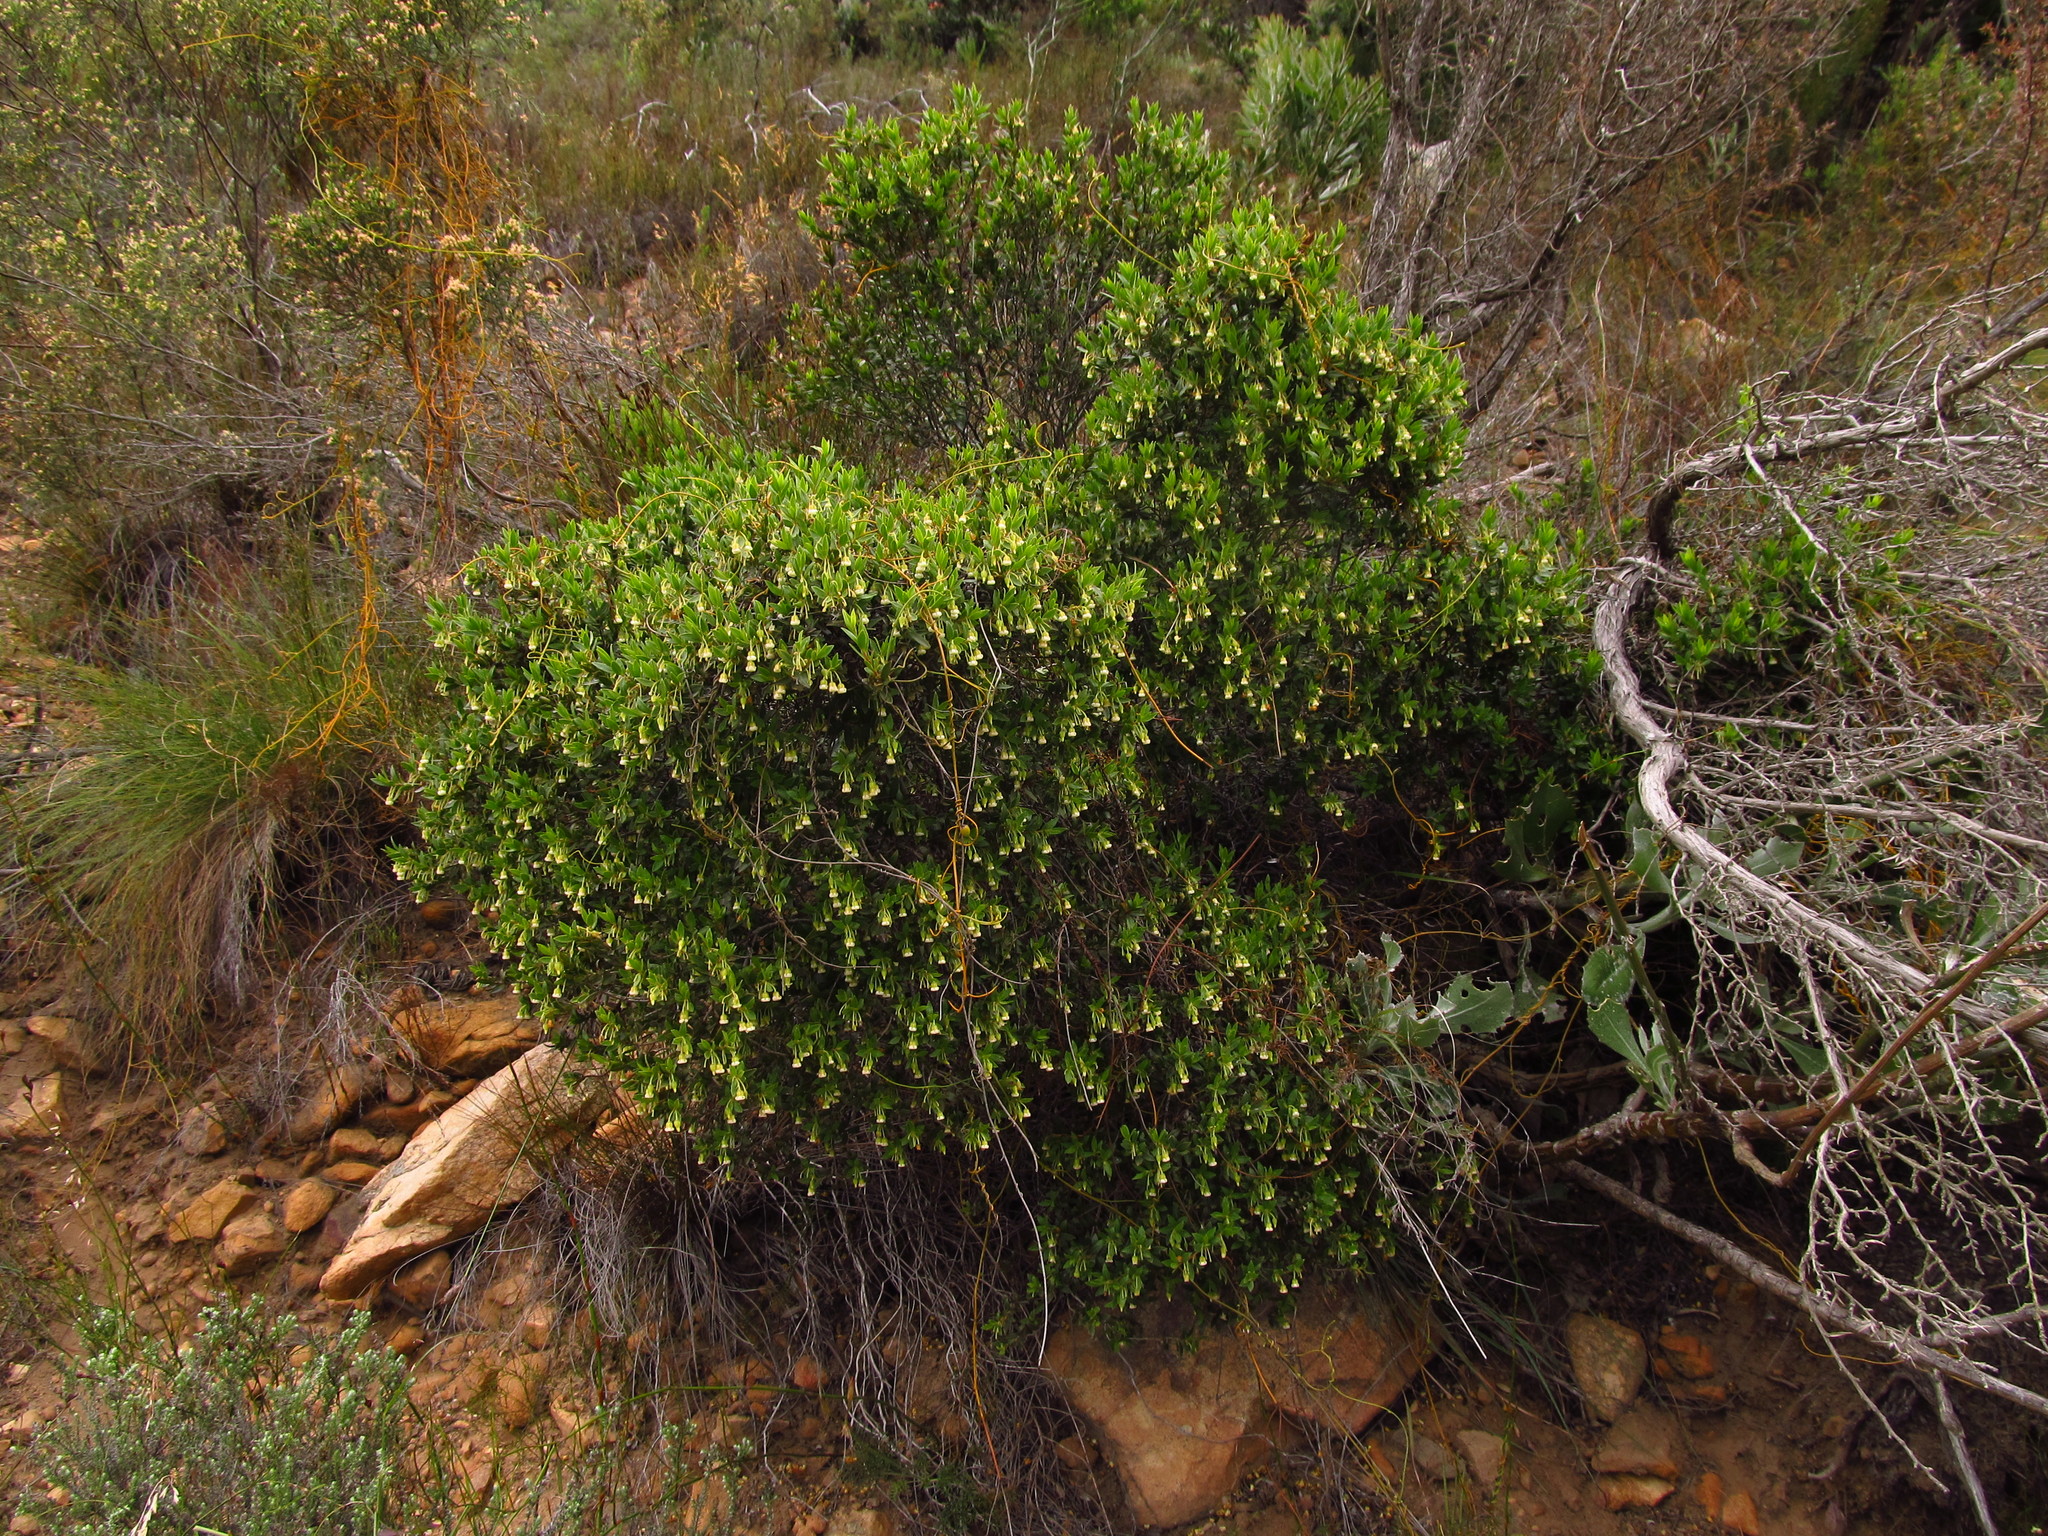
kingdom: Plantae
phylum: Tracheophyta
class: Magnoliopsida
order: Ericales
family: Ebenaceae
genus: Diospyros
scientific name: Diospyros glabra
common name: Fynbos star apple
